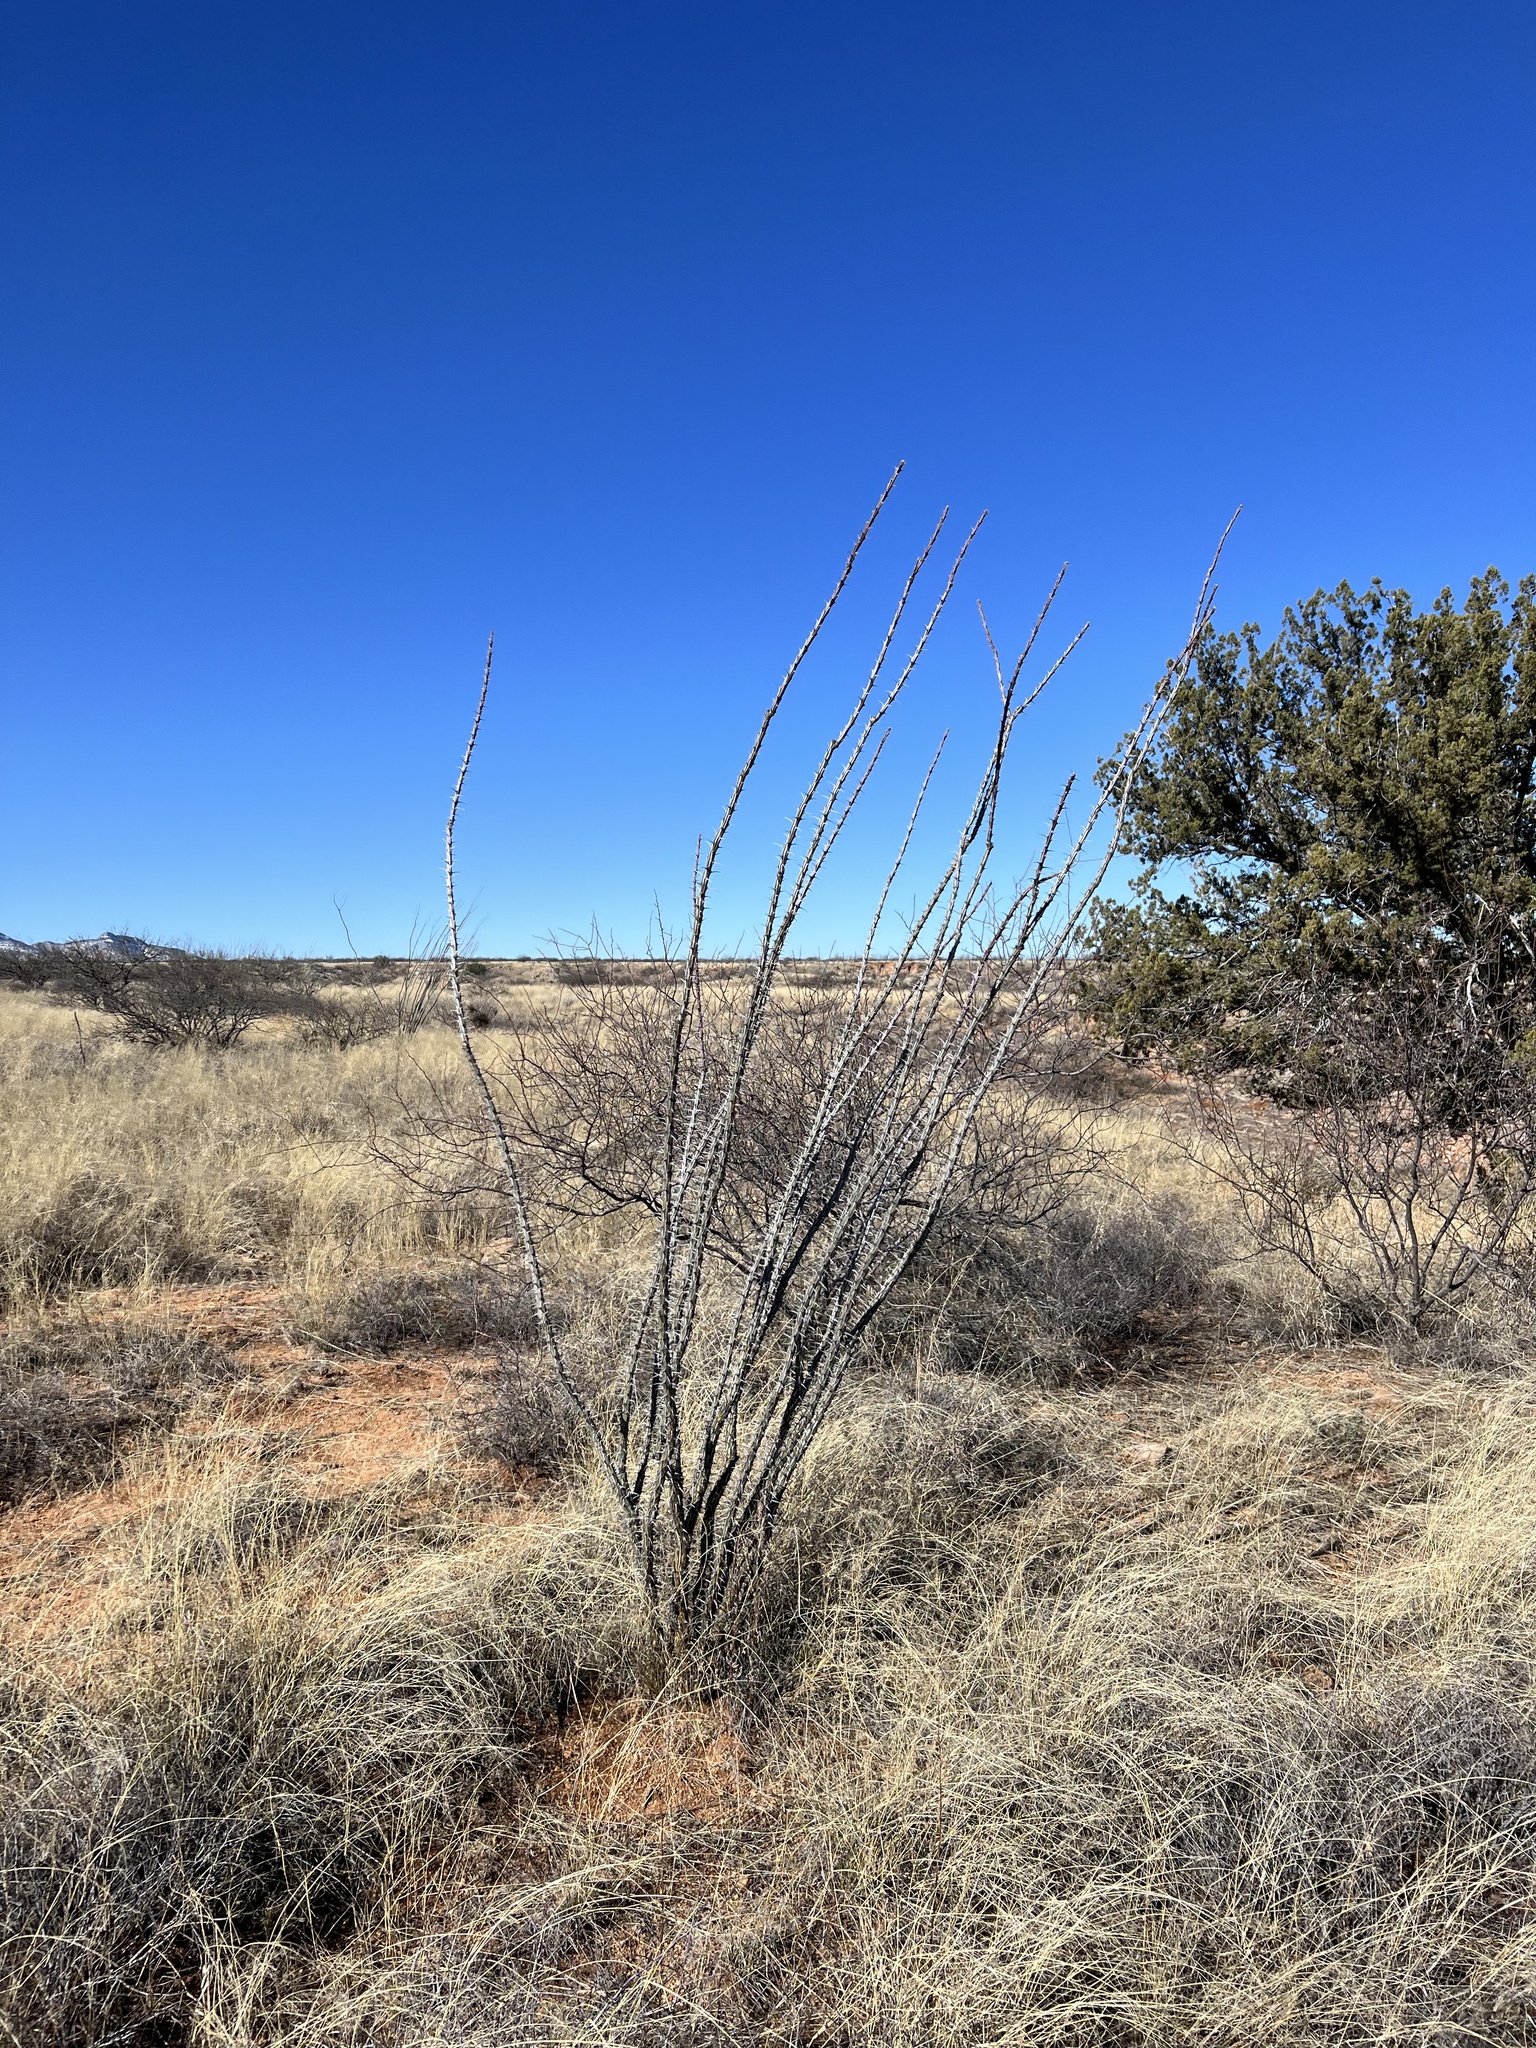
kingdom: Plantae
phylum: Tracheophyta
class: Magnoliopsida
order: Ericales
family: Fouquieriaceae
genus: Fouquieria
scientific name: Fouquieria splendens
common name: Vine-cactus
